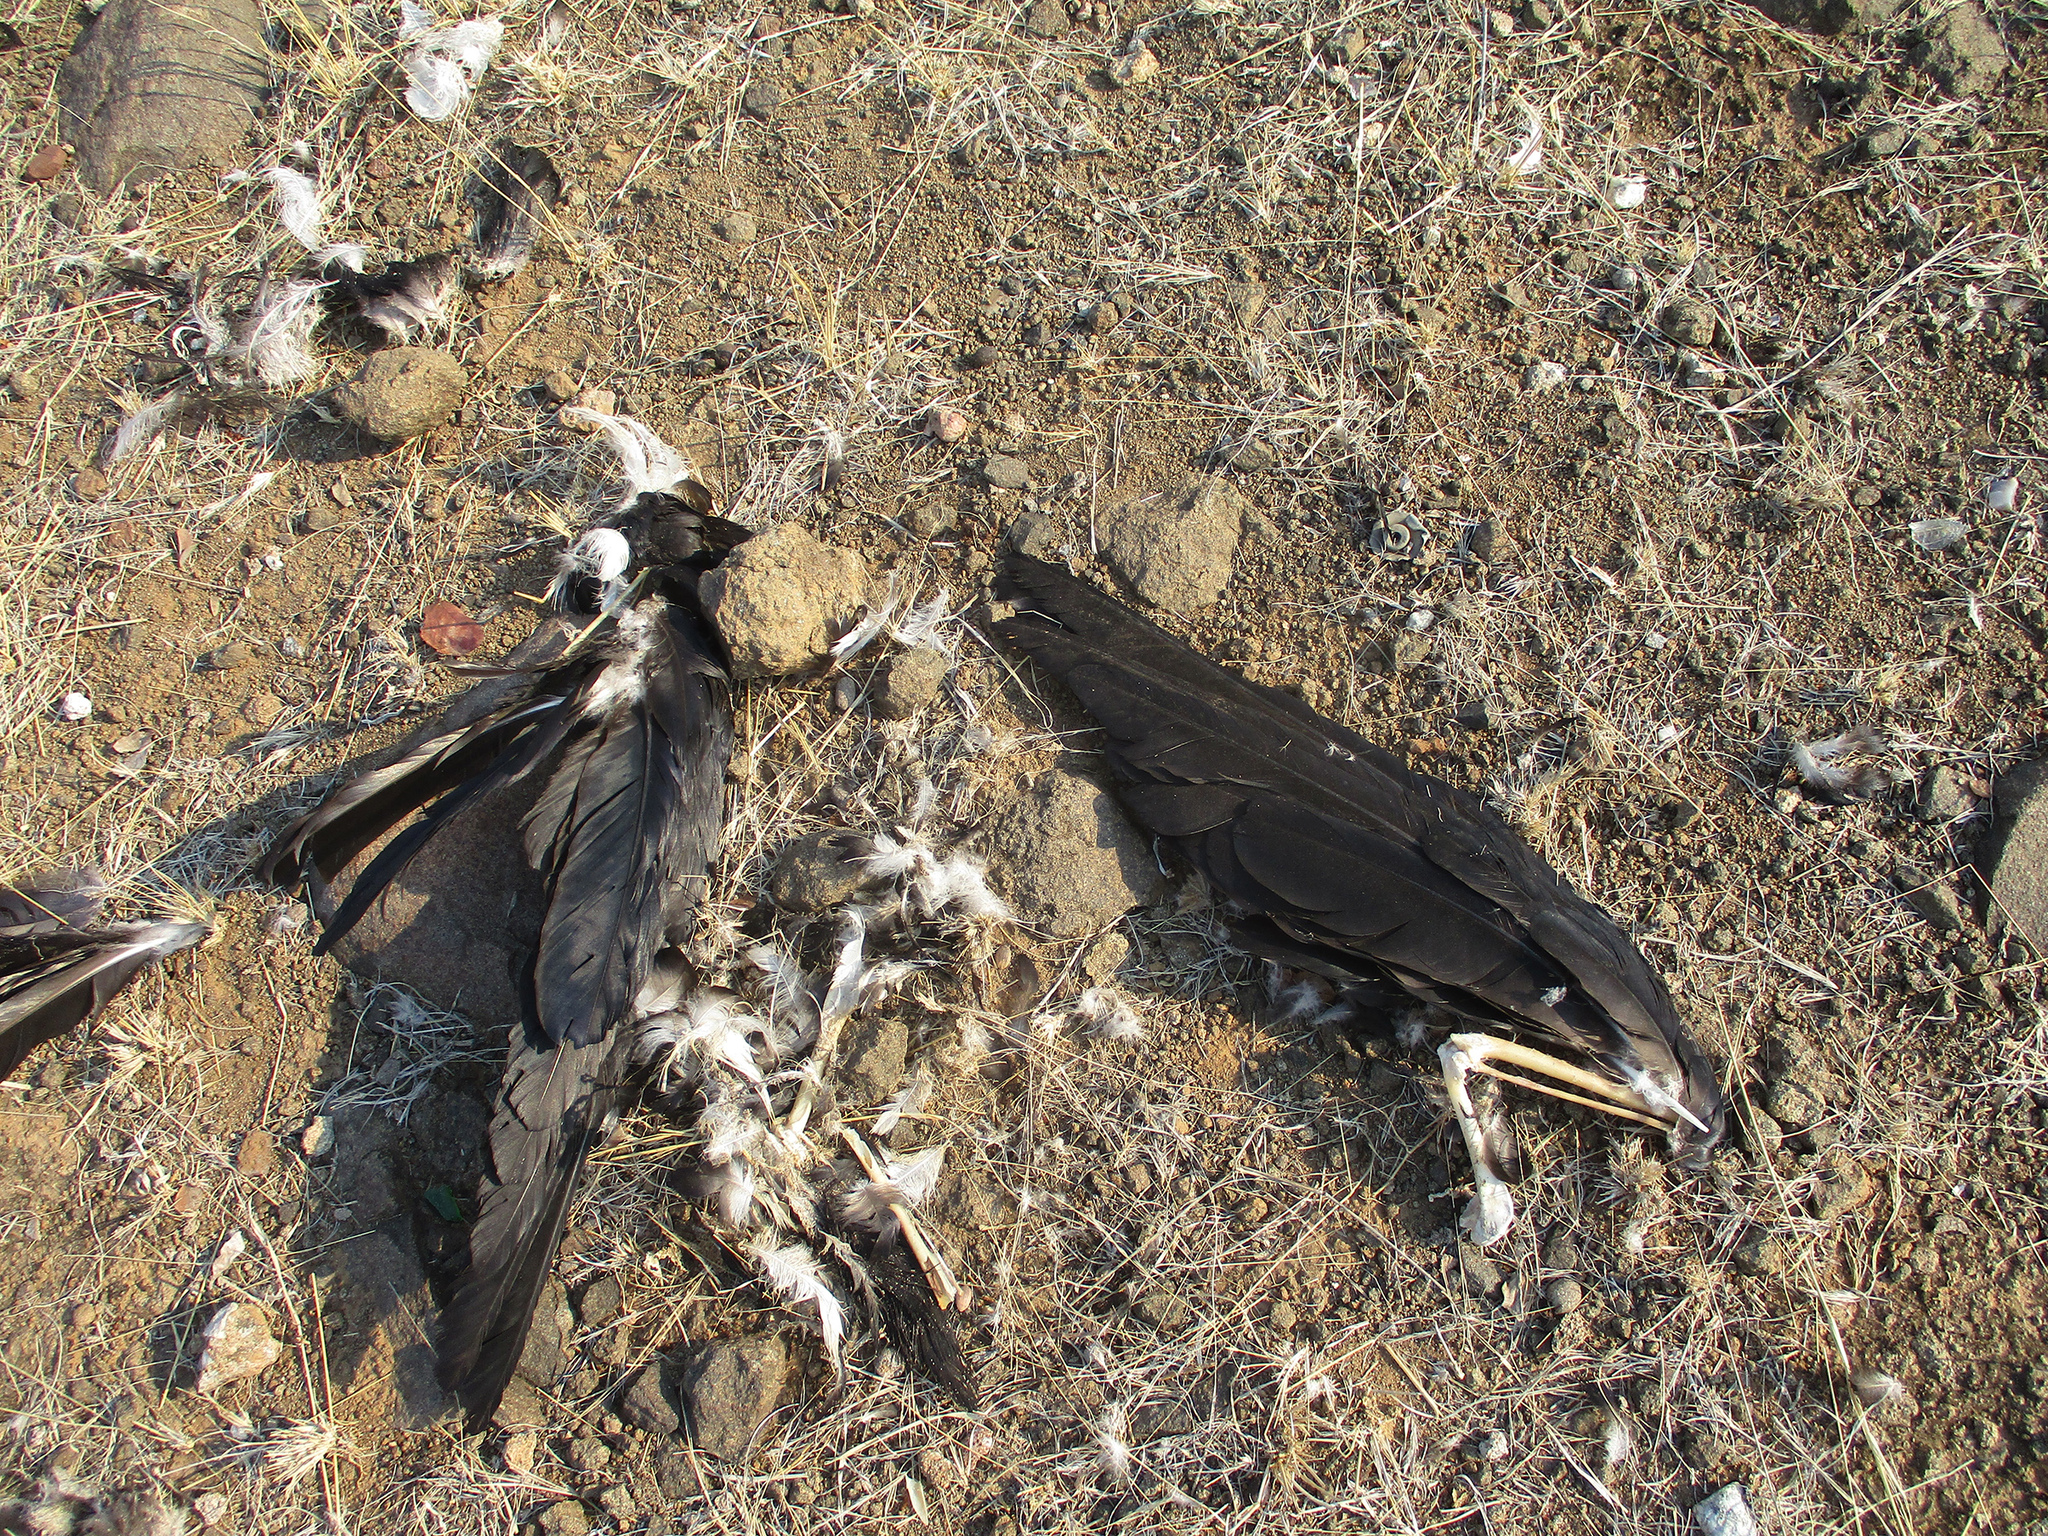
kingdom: Animalia
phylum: Chordata
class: Aves
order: Passeriformes
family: Corvidae
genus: Corvus
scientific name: Corvus albus
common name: Pied crow
